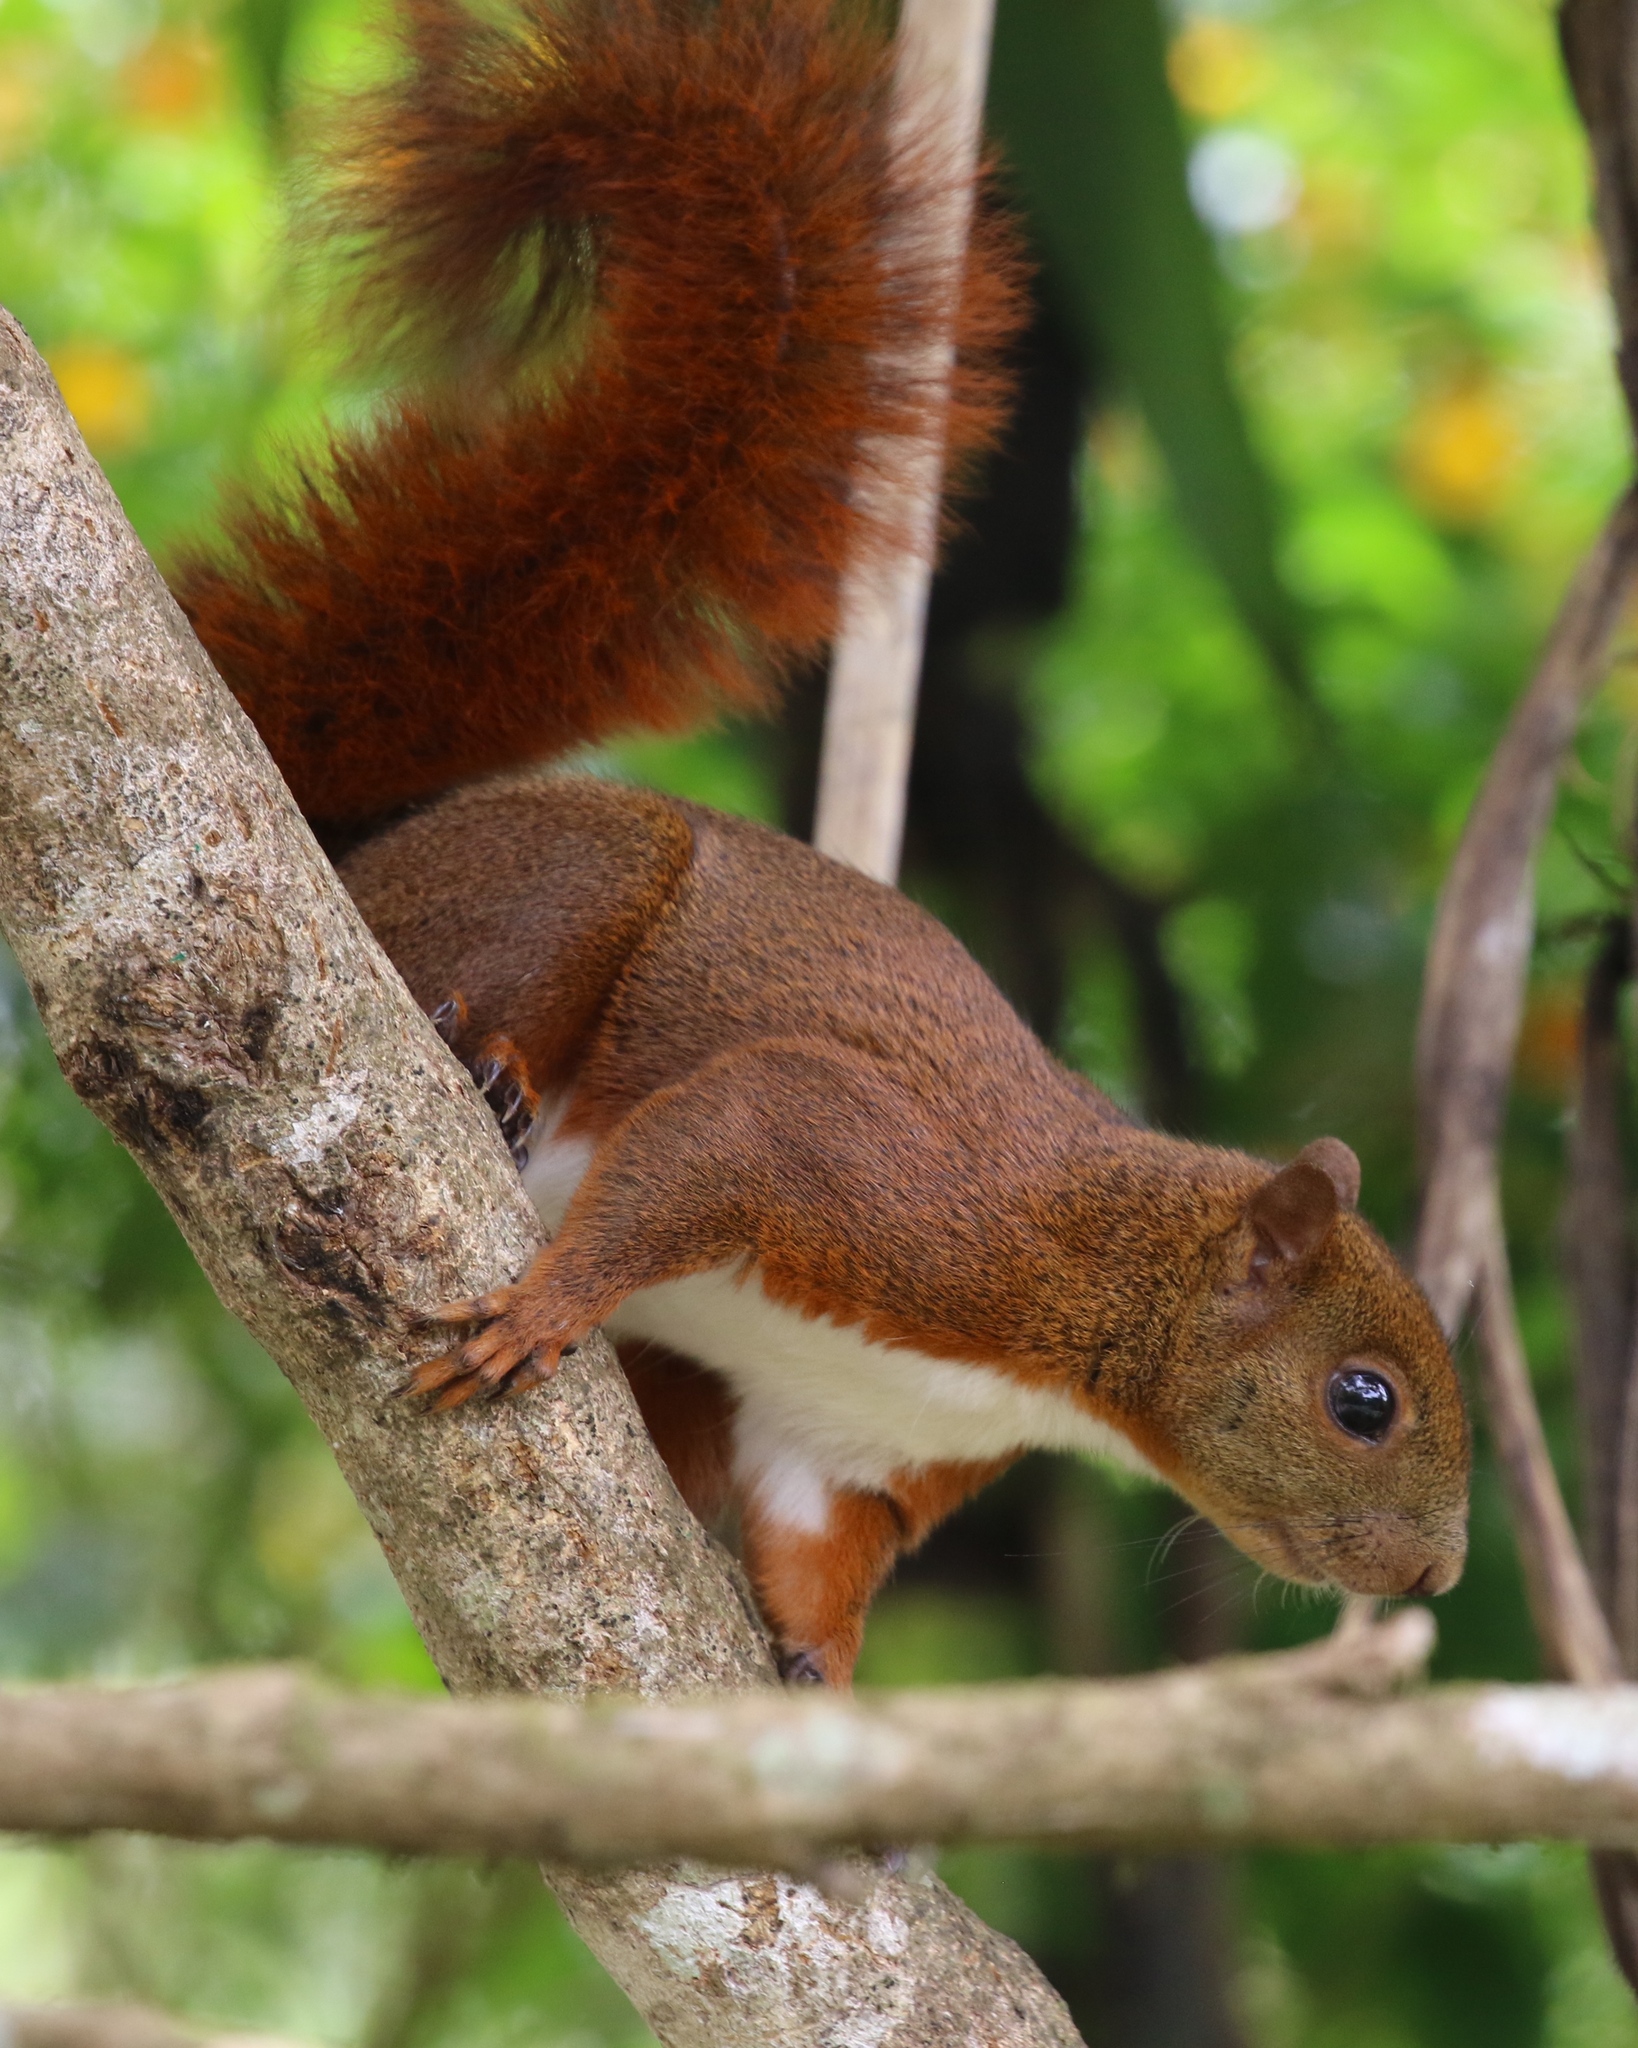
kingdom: Animalia
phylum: Chordata
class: Mammalia
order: Rodentia
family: Sciuridae
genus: Sciurus
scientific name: Sciurus granatensis
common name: Red-tailed squirrel
